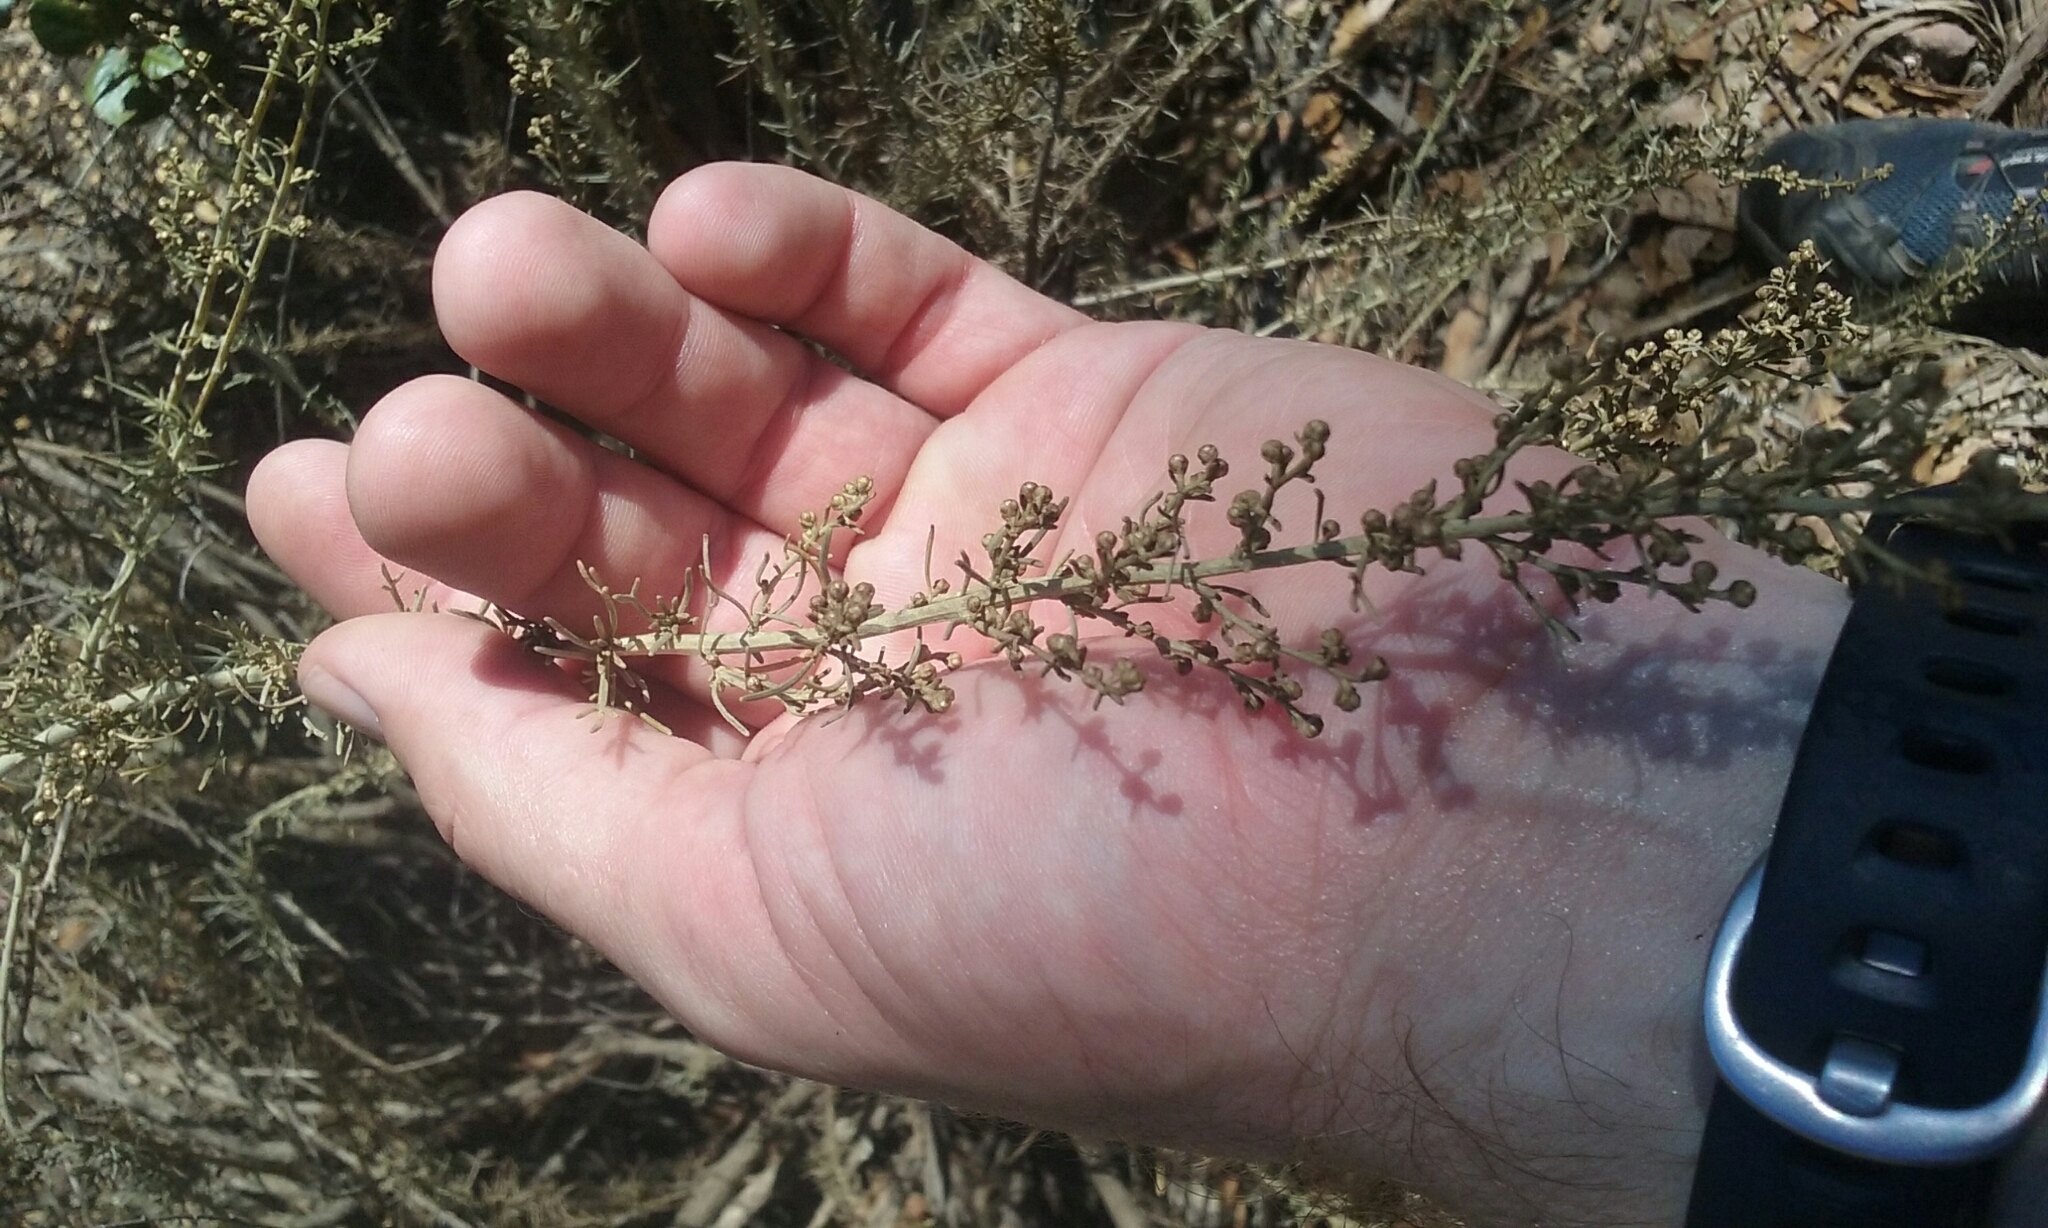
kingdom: Plantae
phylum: Tracheophyta
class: Magnoliopsida
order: Asterales
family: Asteraceae
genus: Artemisia
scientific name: Artemisia californica
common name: California sagebrush
